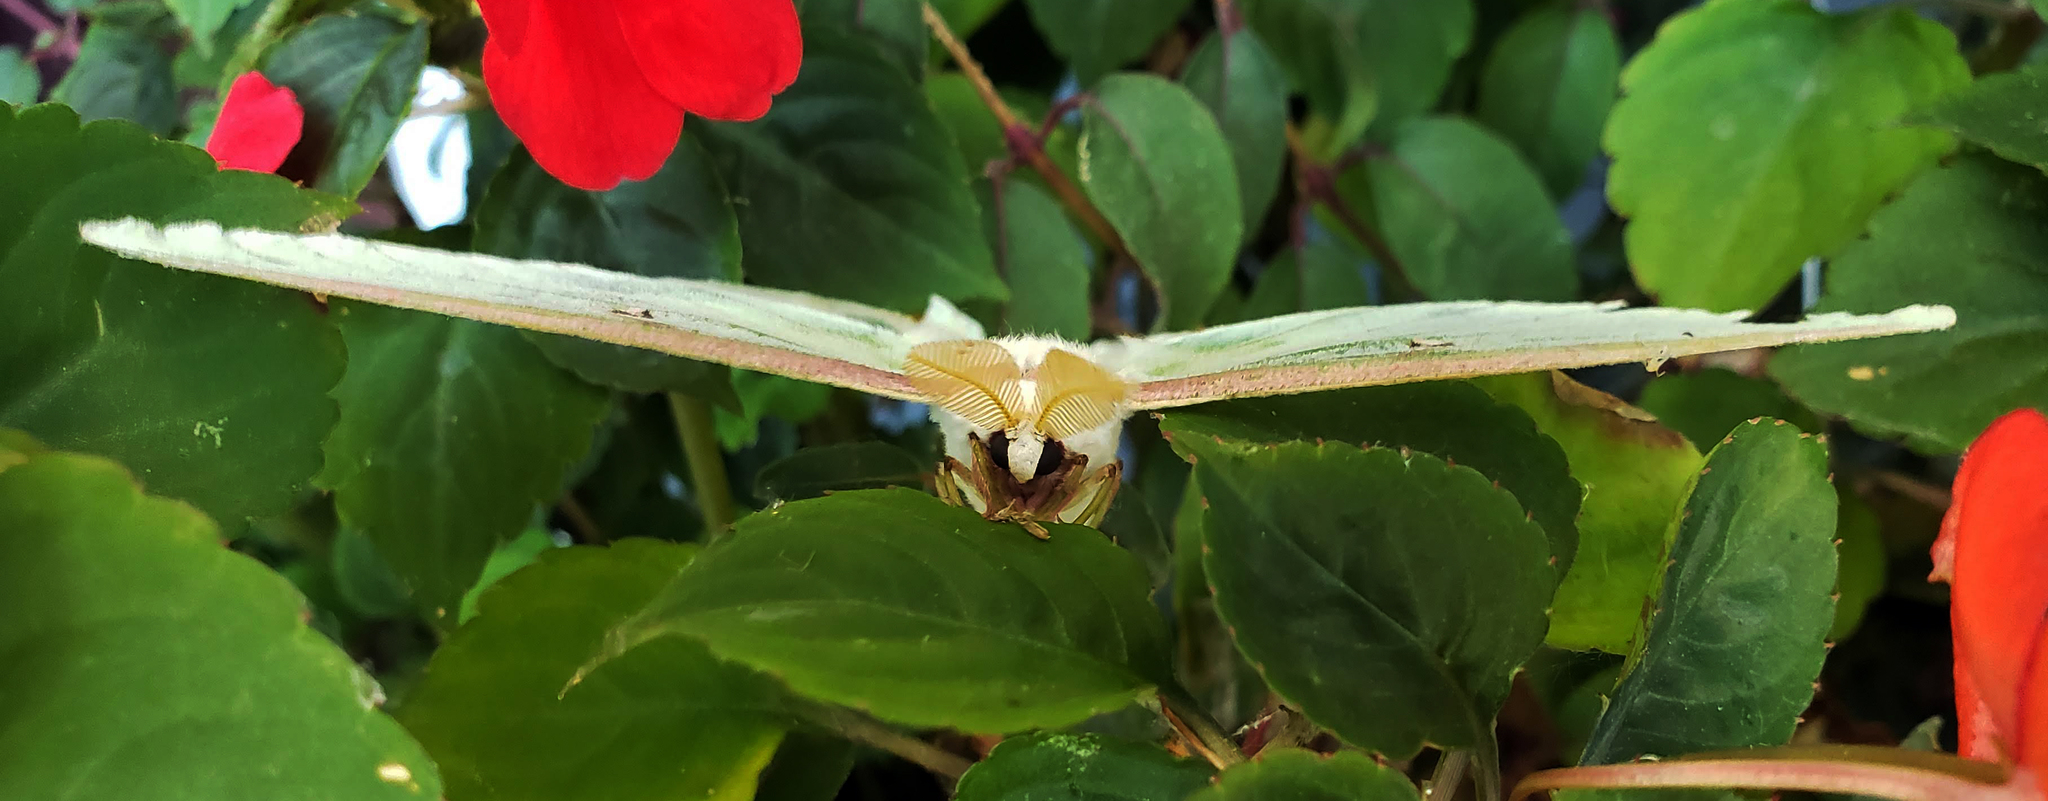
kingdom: Animalia
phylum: Arthropoda
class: Insecta
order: Lepidoptera
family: Saturniidae
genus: Actias
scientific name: Actias luna
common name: Luna moth
